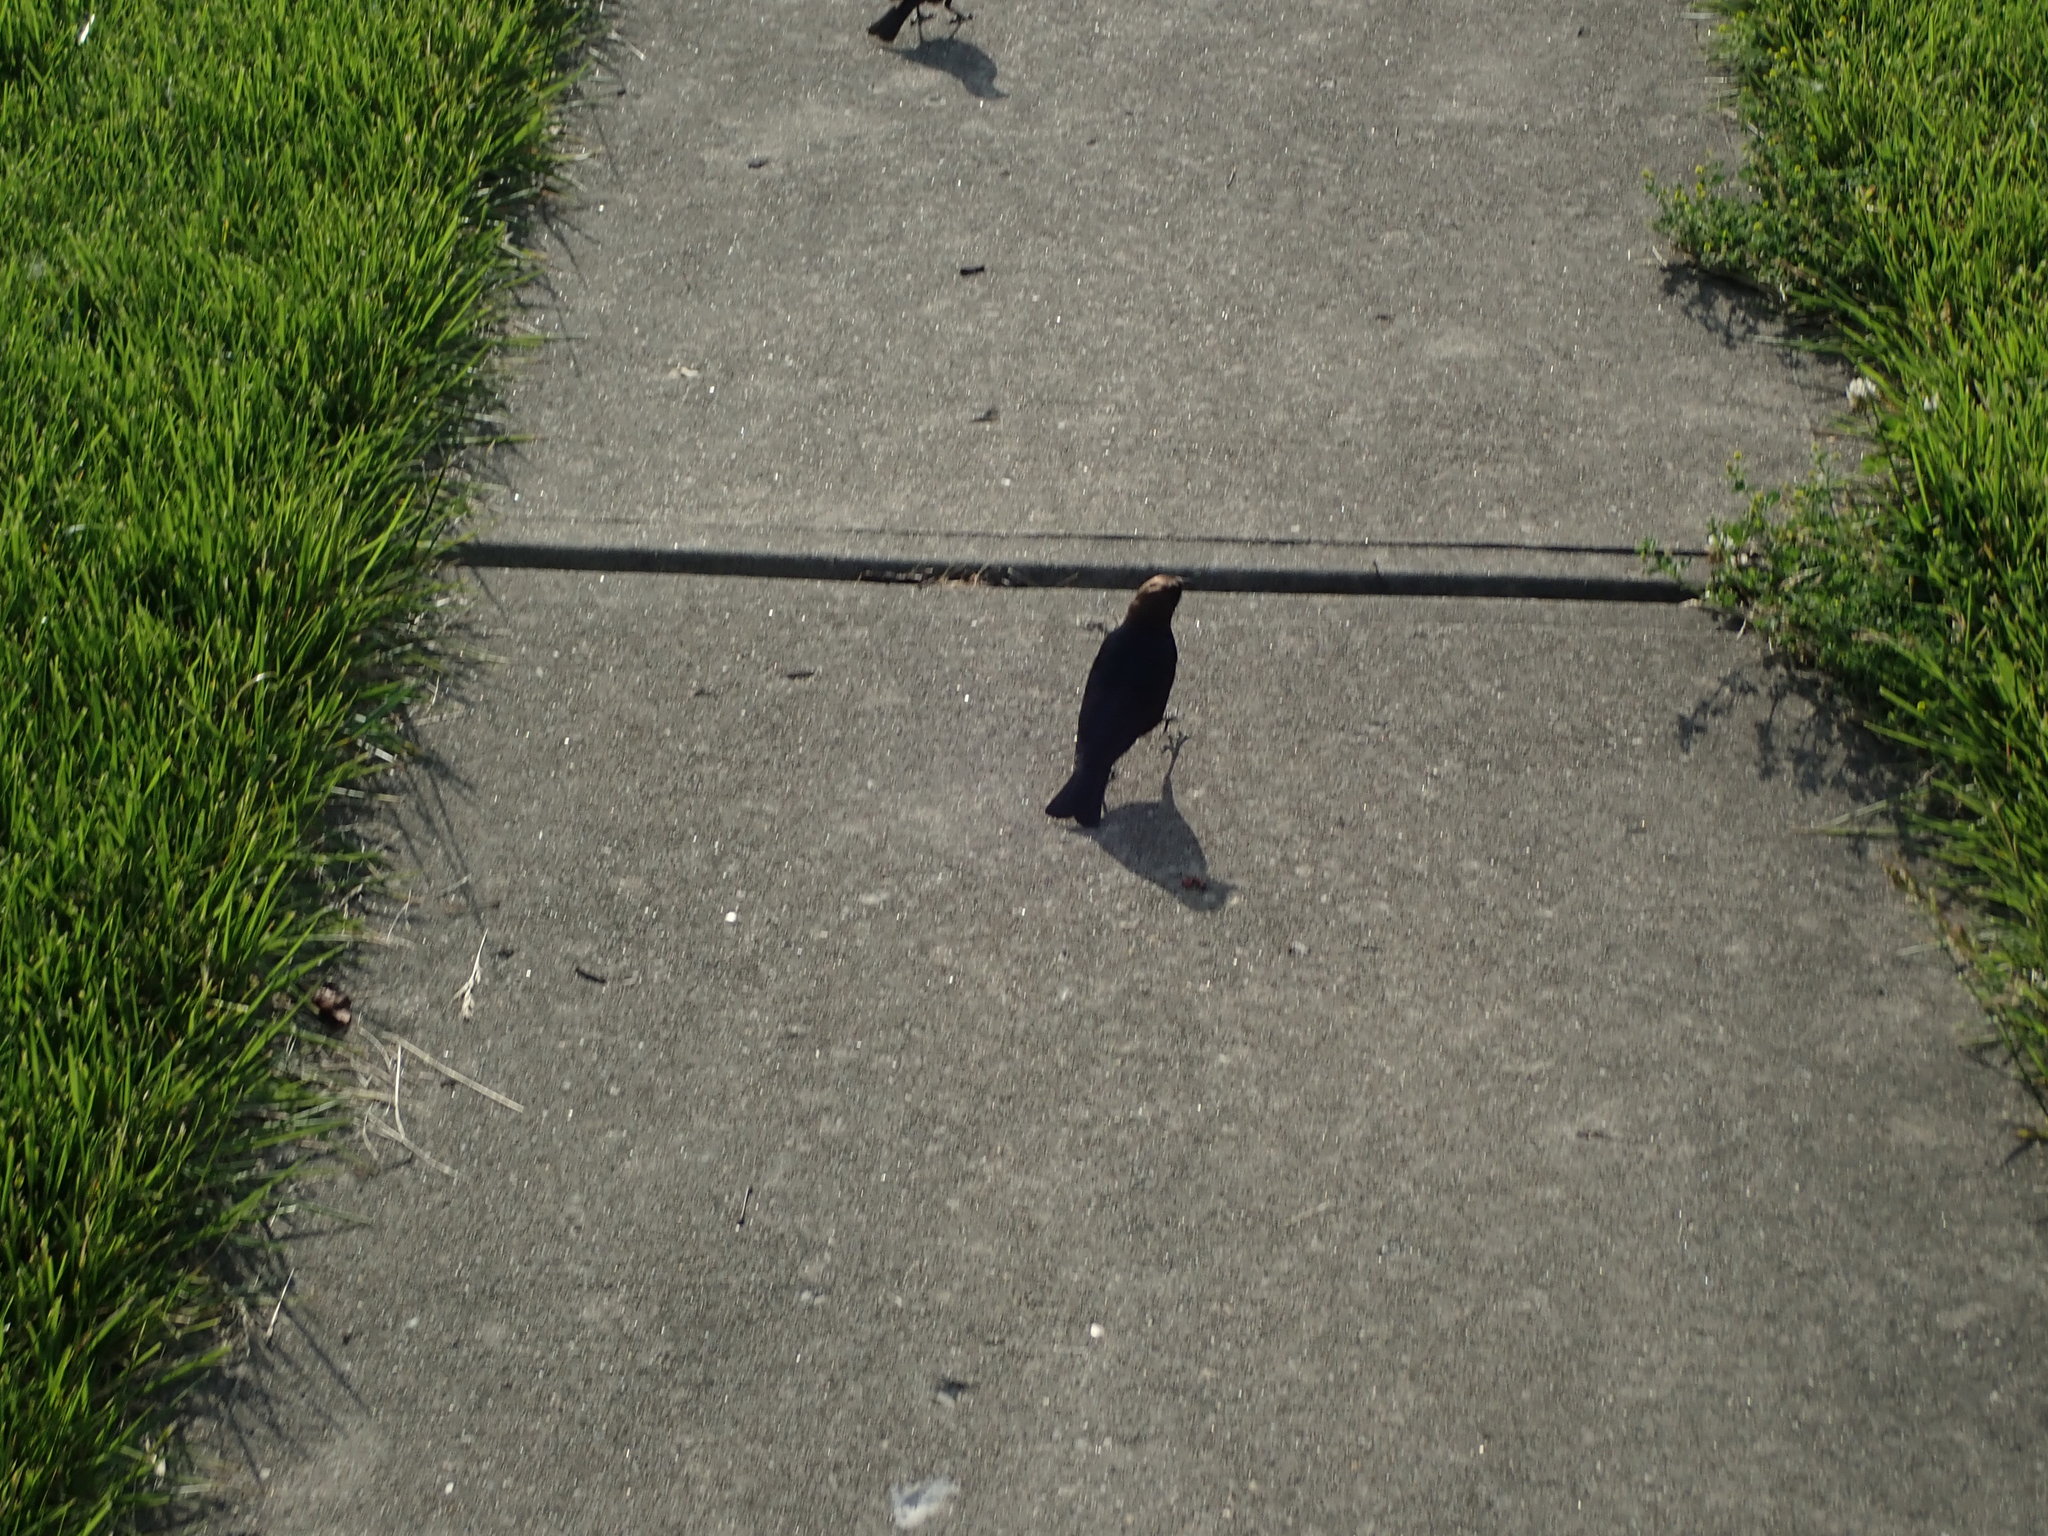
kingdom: Animalia
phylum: Chordata
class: Aves
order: Passeriformes
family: Icteridae
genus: Molothrus
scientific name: Molothrus ater
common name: Brown-headed cowbird
